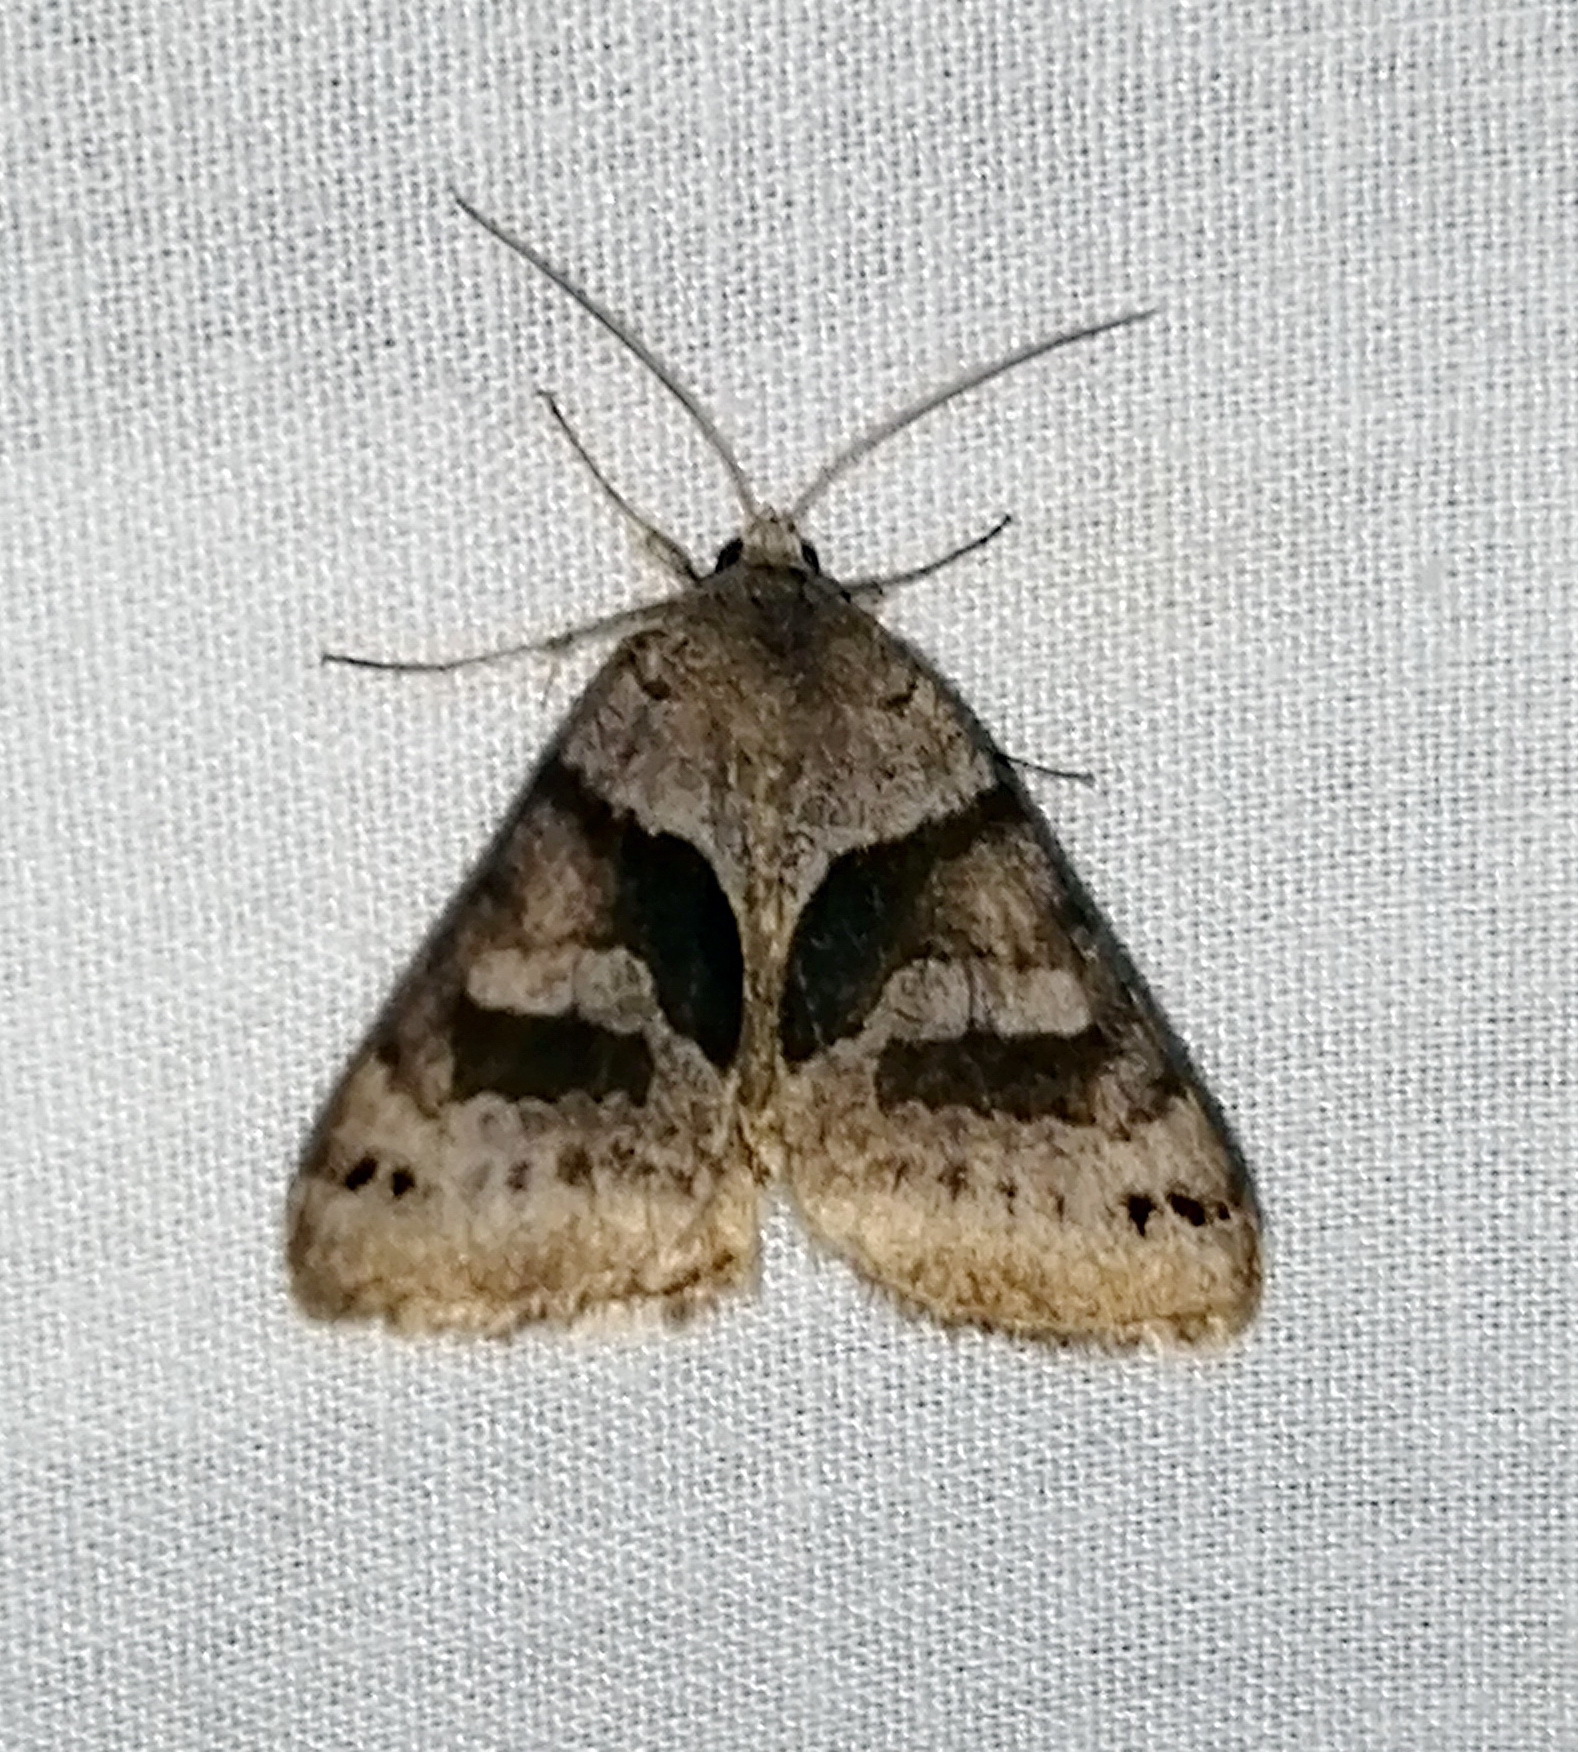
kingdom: Animalia
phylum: Arthropoda
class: Insecta
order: Lepidoptera
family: Erebidae
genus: Caenurgina
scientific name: Caenurgina erechtea
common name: Forage looper moth
